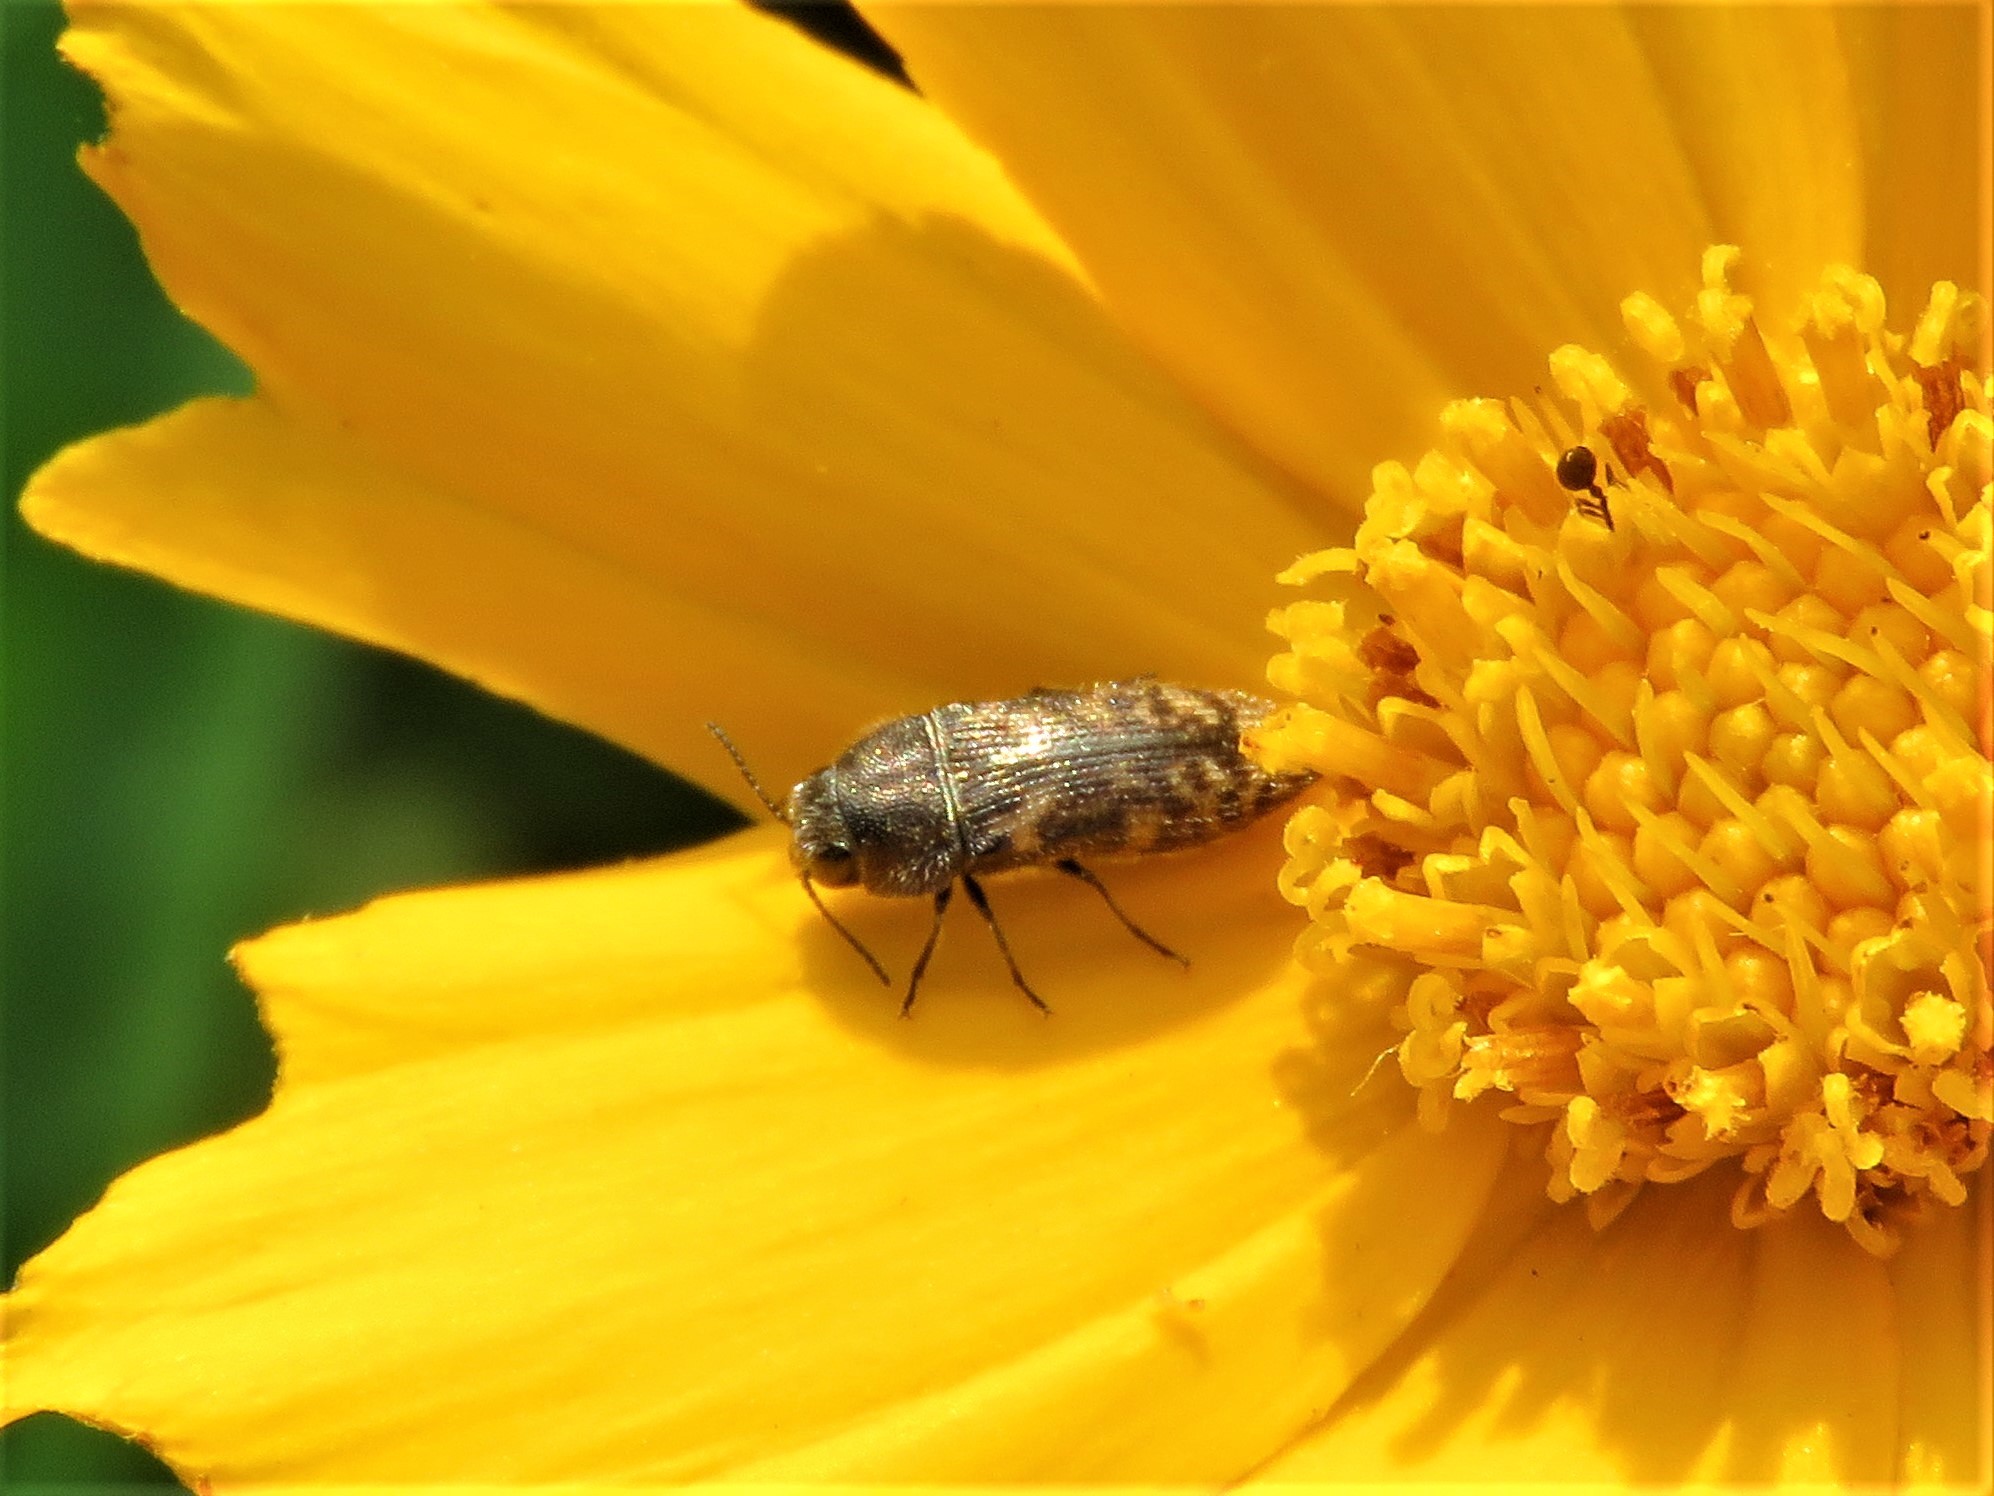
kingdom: Animalia
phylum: Arthropoda
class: Insecta
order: Coleoptera
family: Buprestidae
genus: Acmaeodera
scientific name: Acmaeodera neglecta
